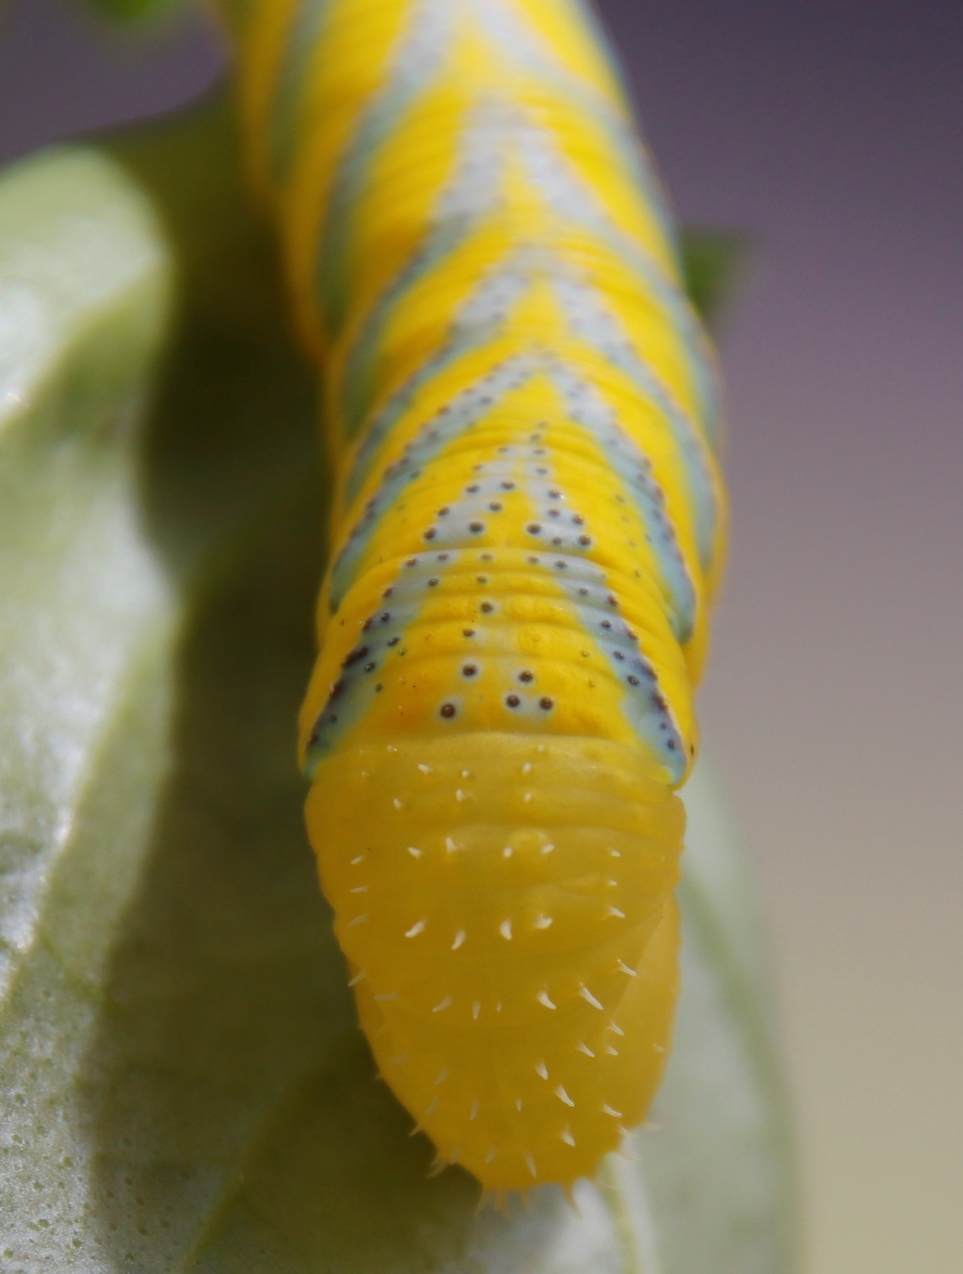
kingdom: Animalia
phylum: Arthropoda
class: Insecta
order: Lepidoptera
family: Sphingidae
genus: Acherontia
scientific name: Acherontia atropos
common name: Death's-head hawk moth
